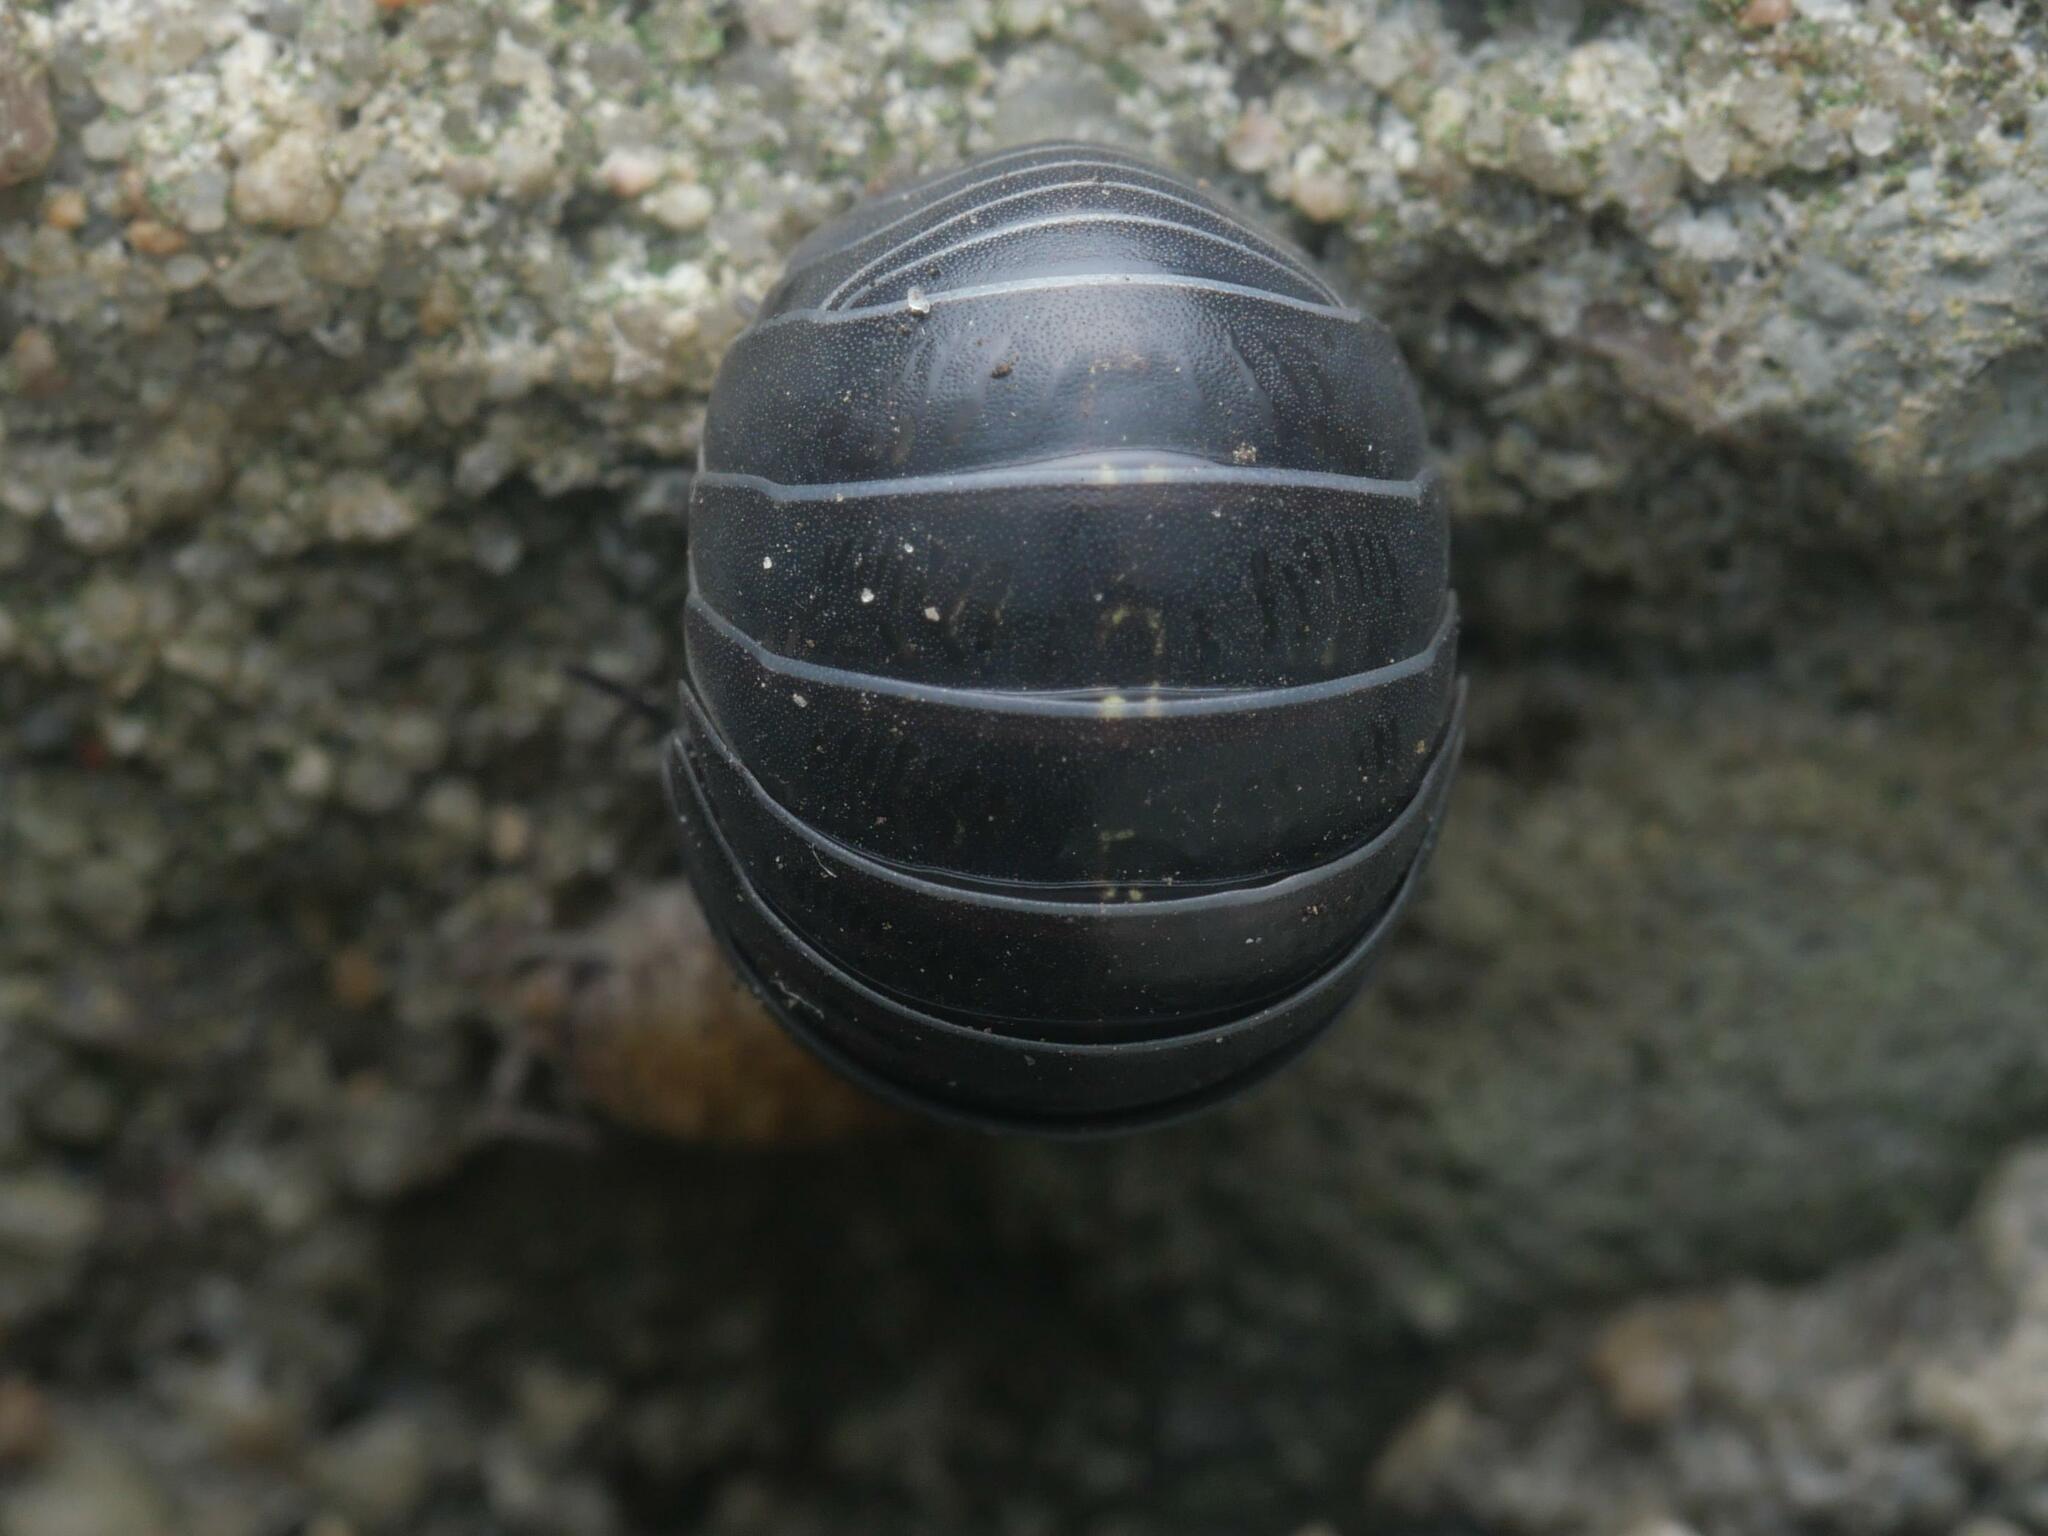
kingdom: Animalia
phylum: Arthropoda
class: Malacostraca
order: Isopoda
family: Armadillidiidae
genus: Armadillidium
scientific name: Armadillidium vulgare
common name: Common pill woodlouse
